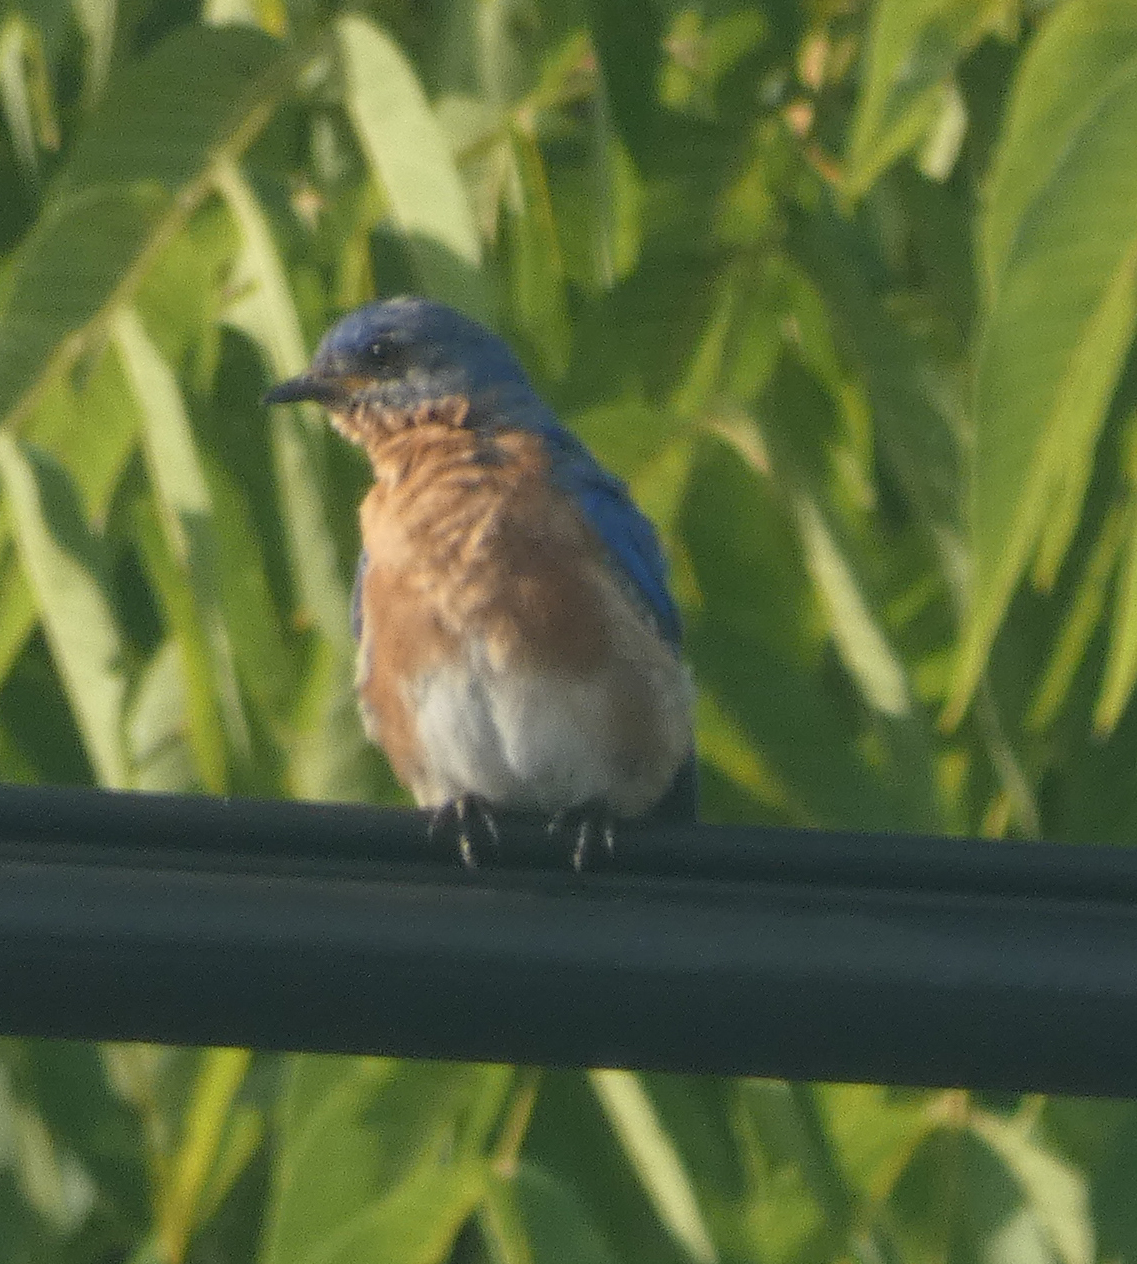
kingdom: Animalia
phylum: Chordata
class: Aves
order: Passeriformes
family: Turdidae
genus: Sialia
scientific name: Sialia sialis
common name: Eastern bluebird
